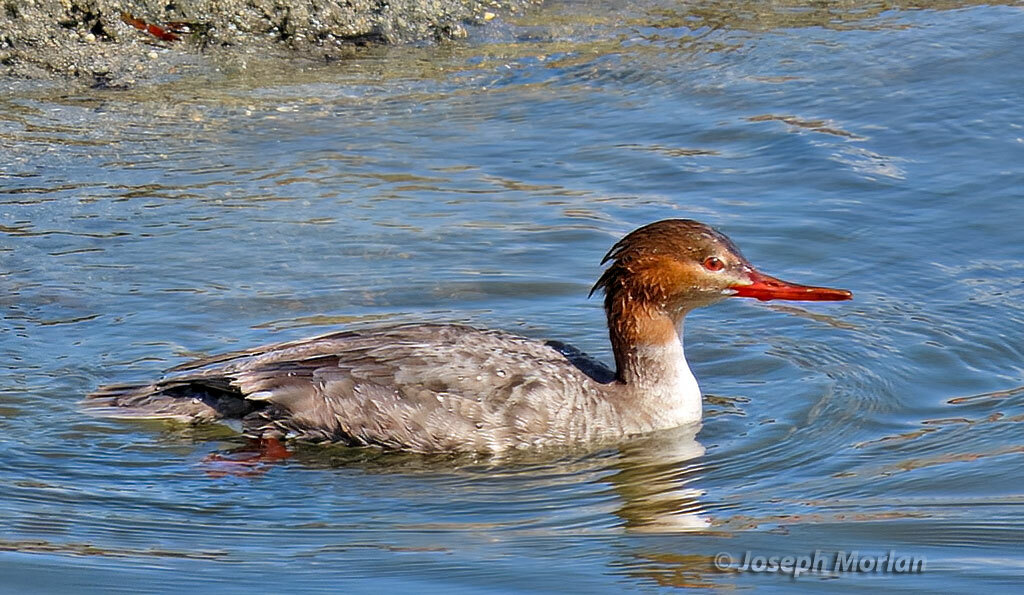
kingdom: Animalia
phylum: Chordata
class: Aves
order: Anseriformes
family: Anatidae
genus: Mergus
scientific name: Mergus serrator
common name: Red-breasted merganser
